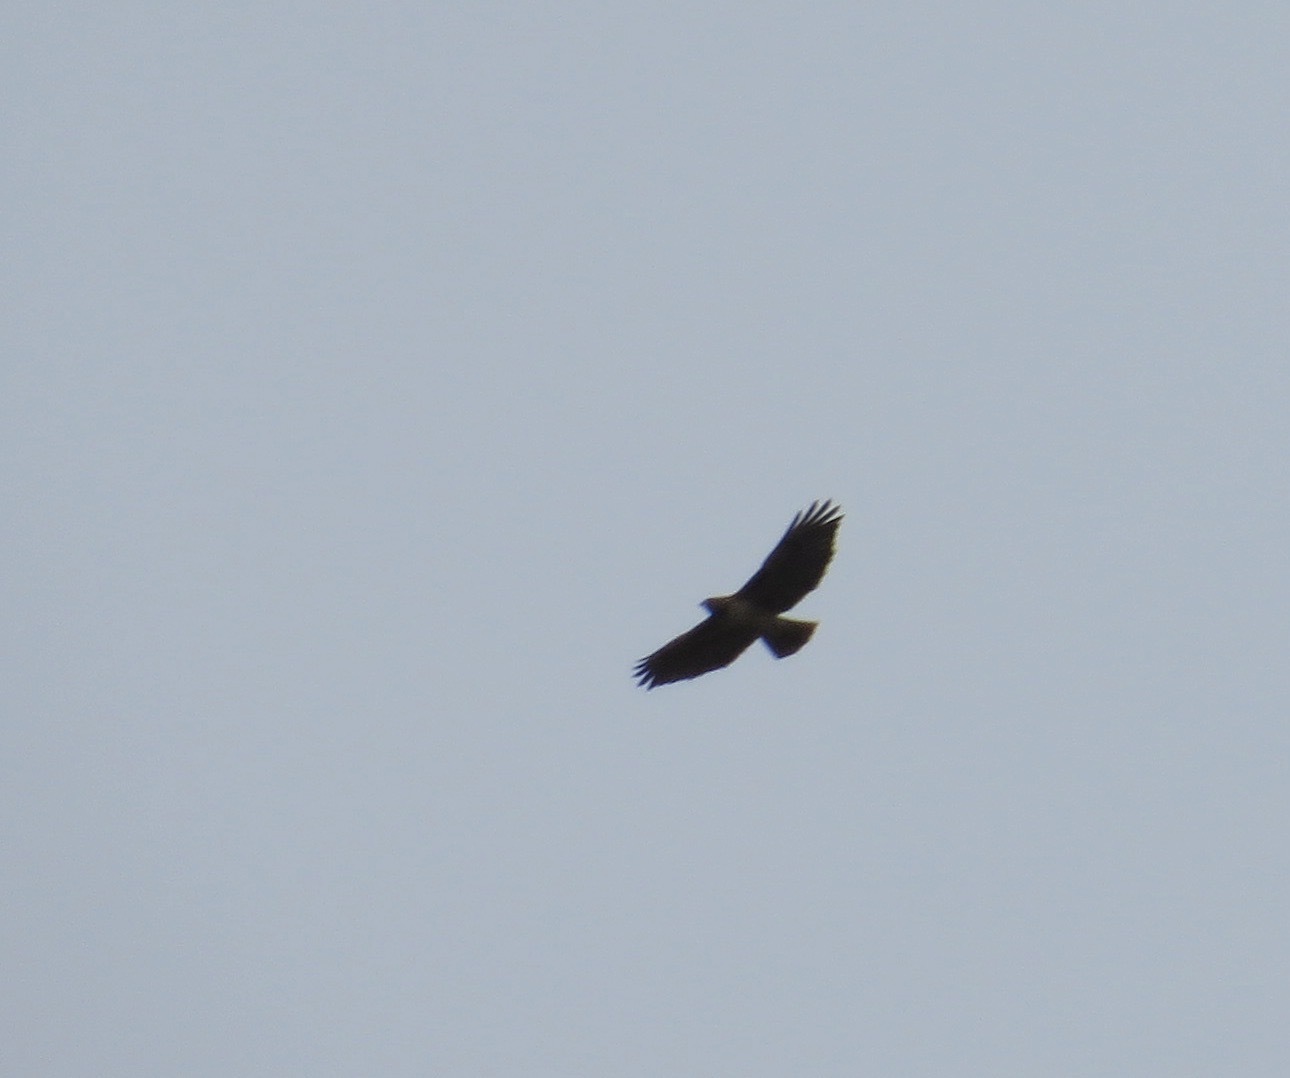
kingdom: Animalia
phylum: Chordata
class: Aves
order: Accipitriformes
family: Accipitridae
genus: Buteo
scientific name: Buteo jamaicensis
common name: Red-tailed hawk
